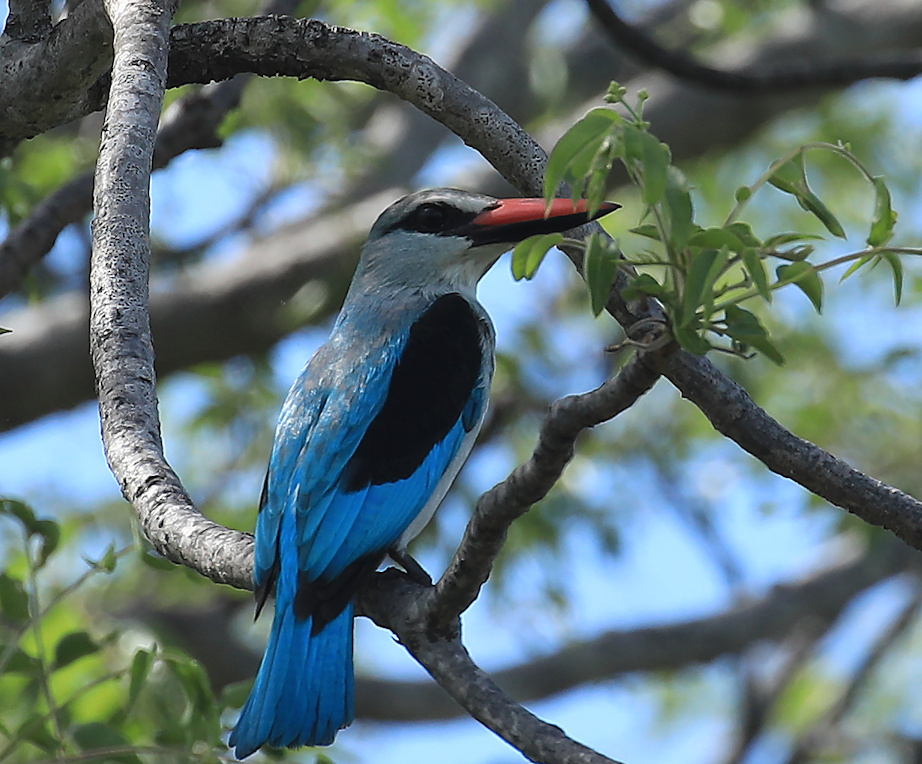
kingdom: Animalia
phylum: Chordata
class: Aves
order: Coraciiformes
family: Alcedinidae
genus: Halcyon
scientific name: Halcyon senegalensis
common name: Woodland kingfisher
